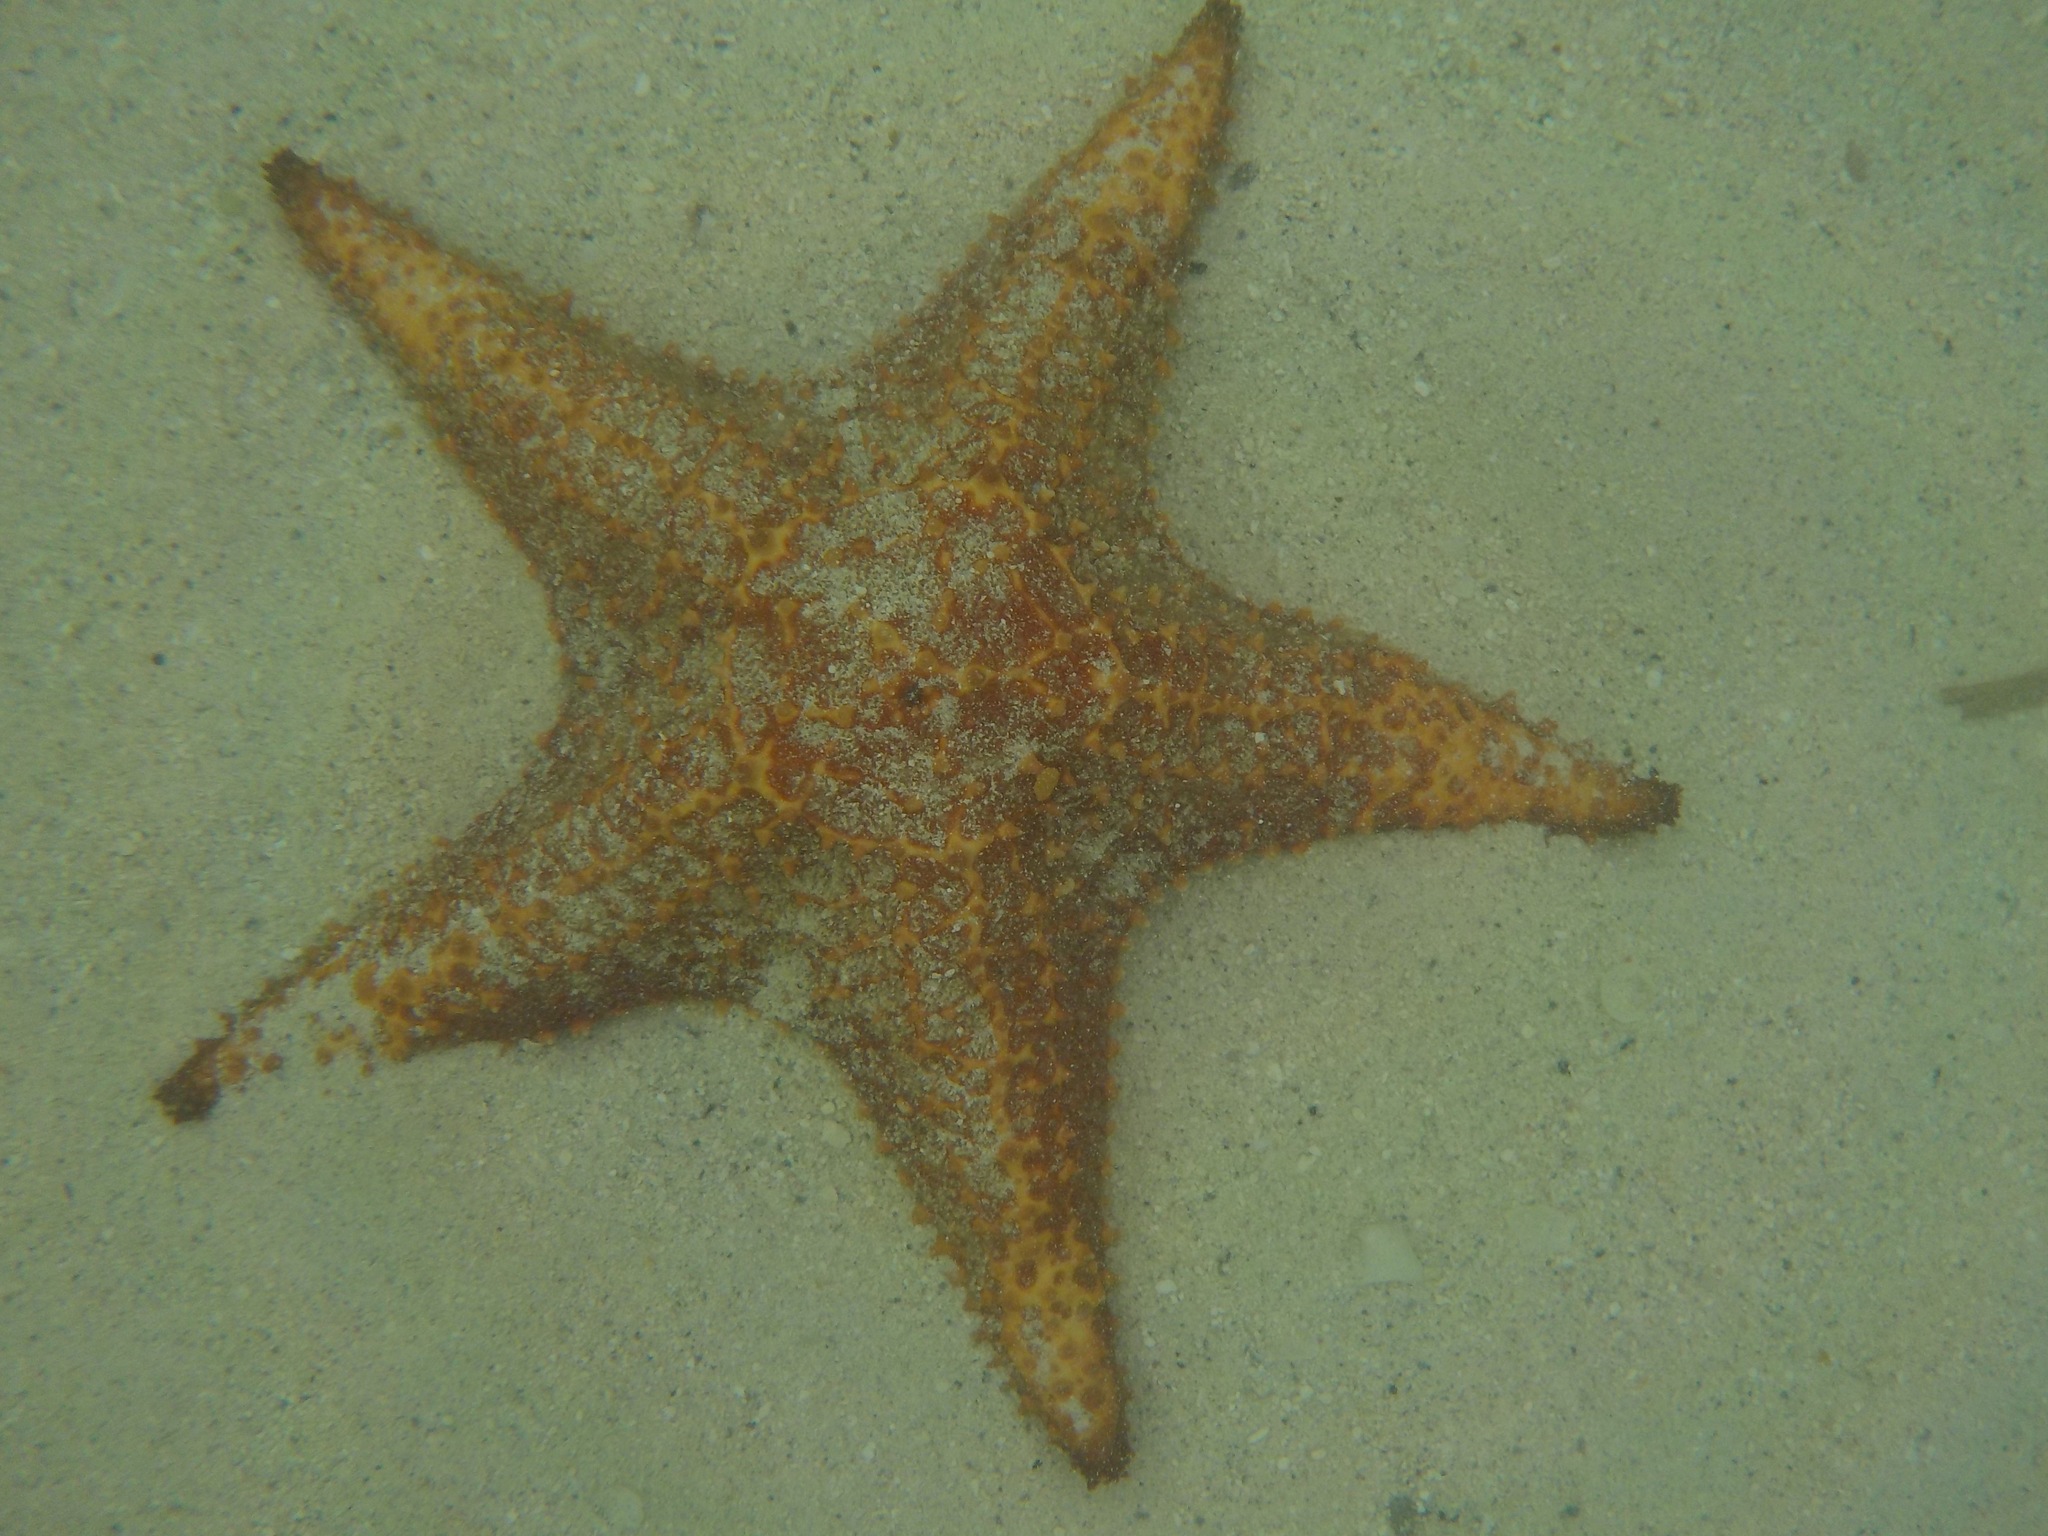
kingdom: Animalia
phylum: Echinodermata
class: Asteroidea
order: Valvatida
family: Oreasteridae
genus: Oreaster
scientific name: Oreaster reticulatus
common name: Cushion sea star
